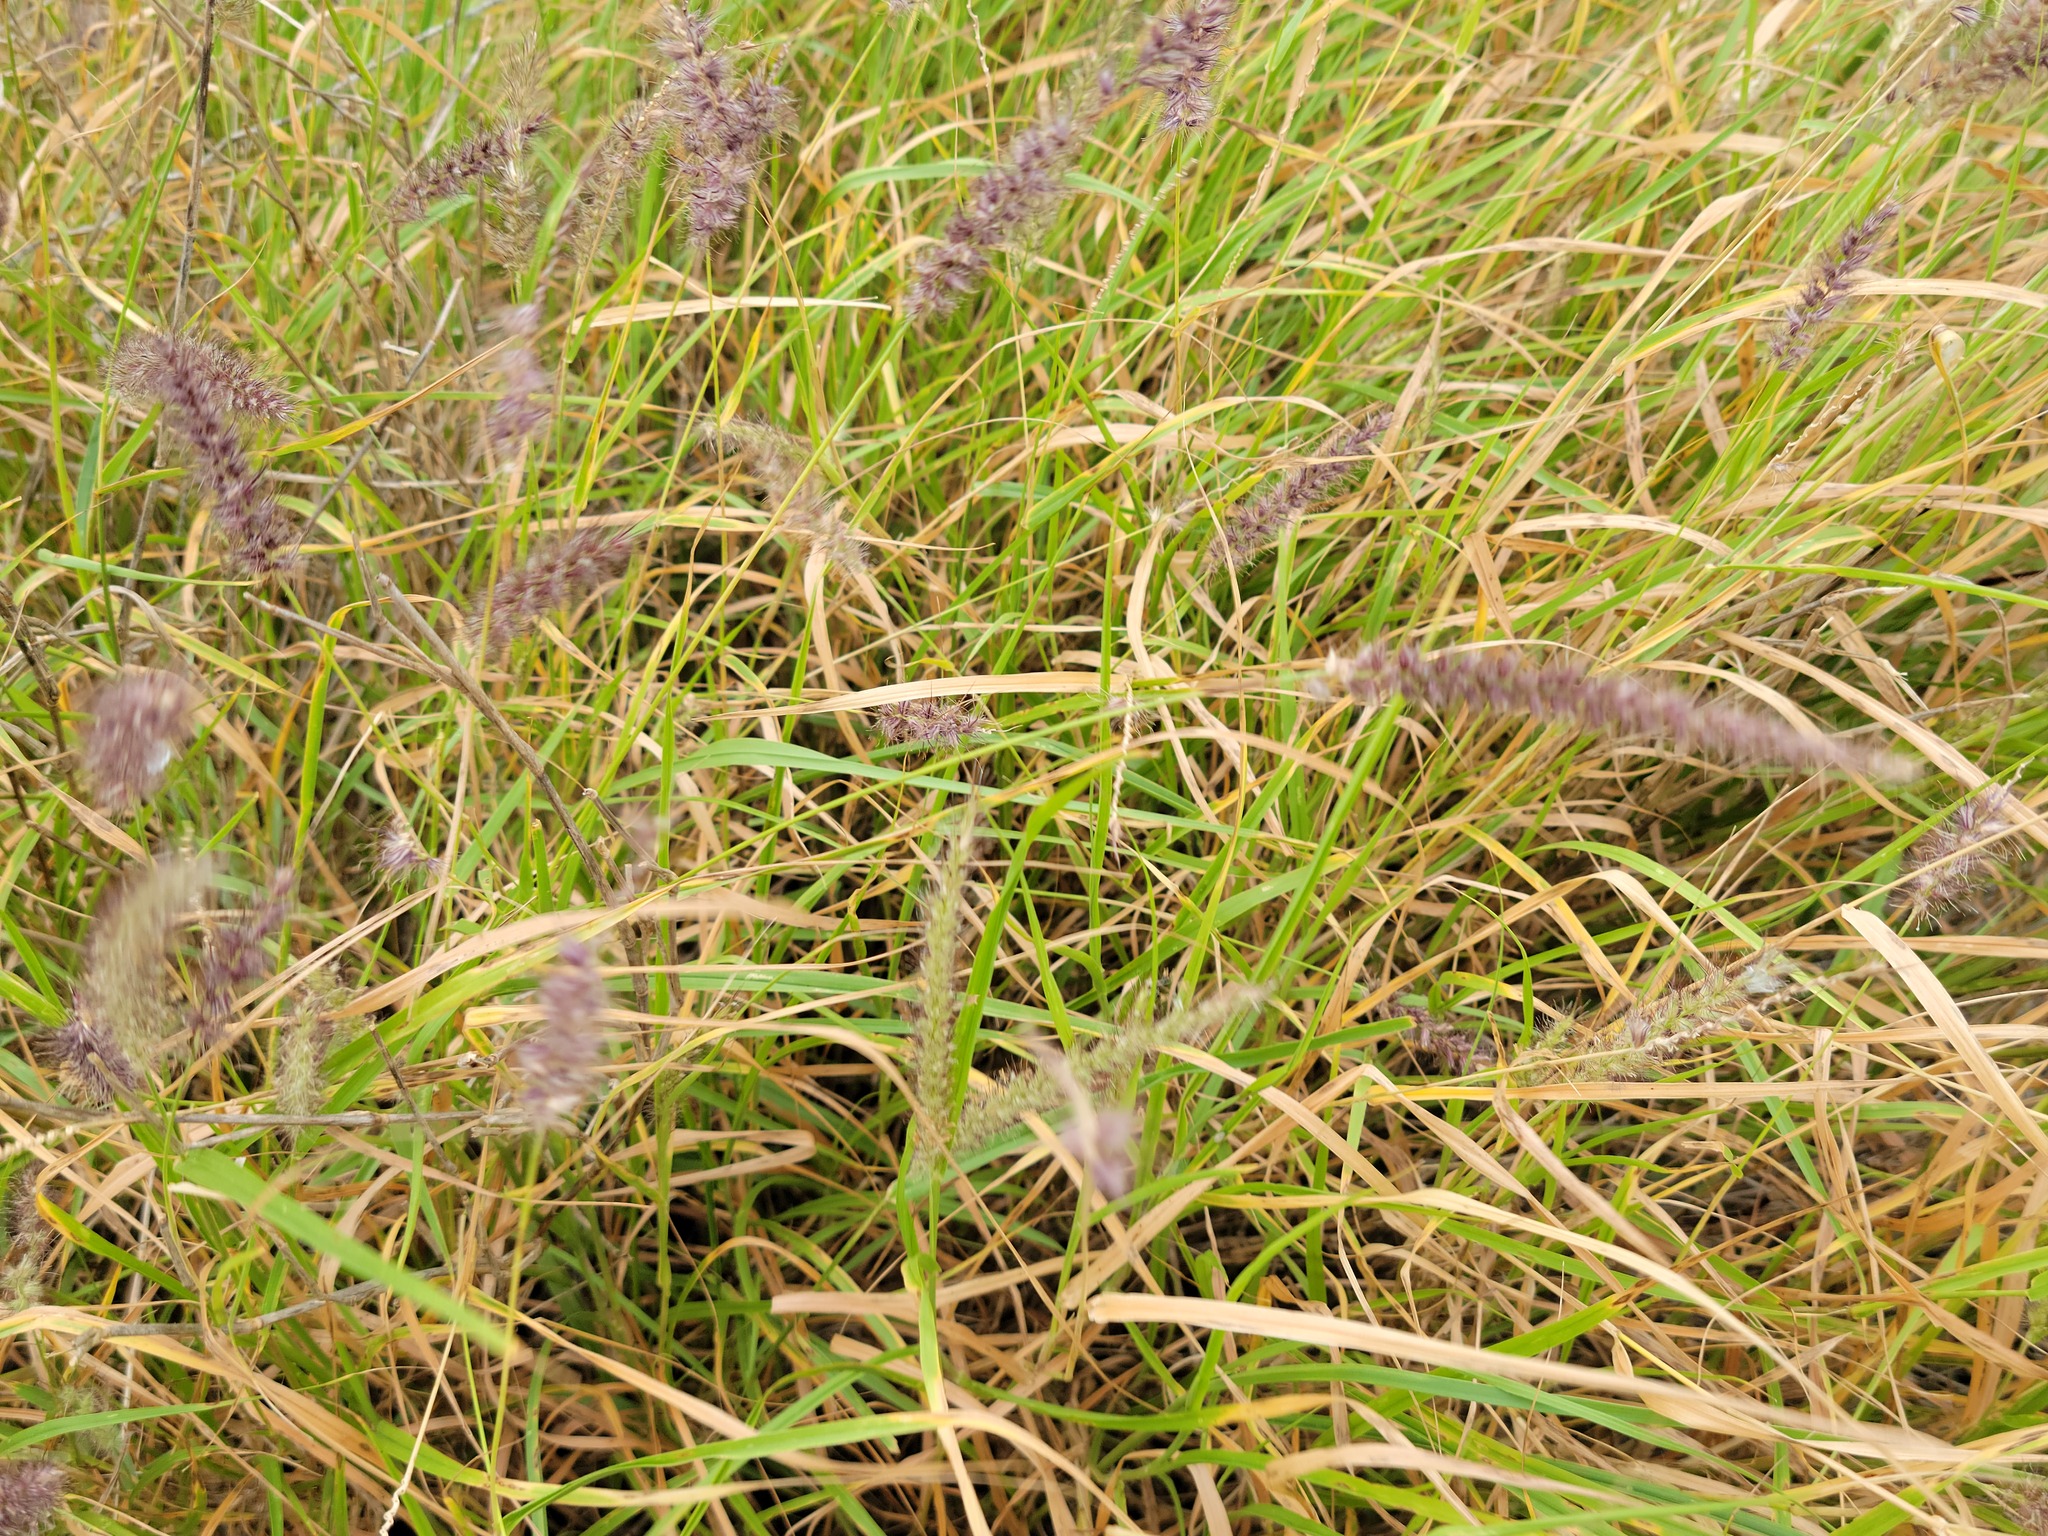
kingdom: Plantae
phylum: Tracheophyta
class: Liliopsida
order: Poales
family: Poaceae
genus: Cenchrus
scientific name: Cenchrus ciliaris
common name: Buffelgrass
